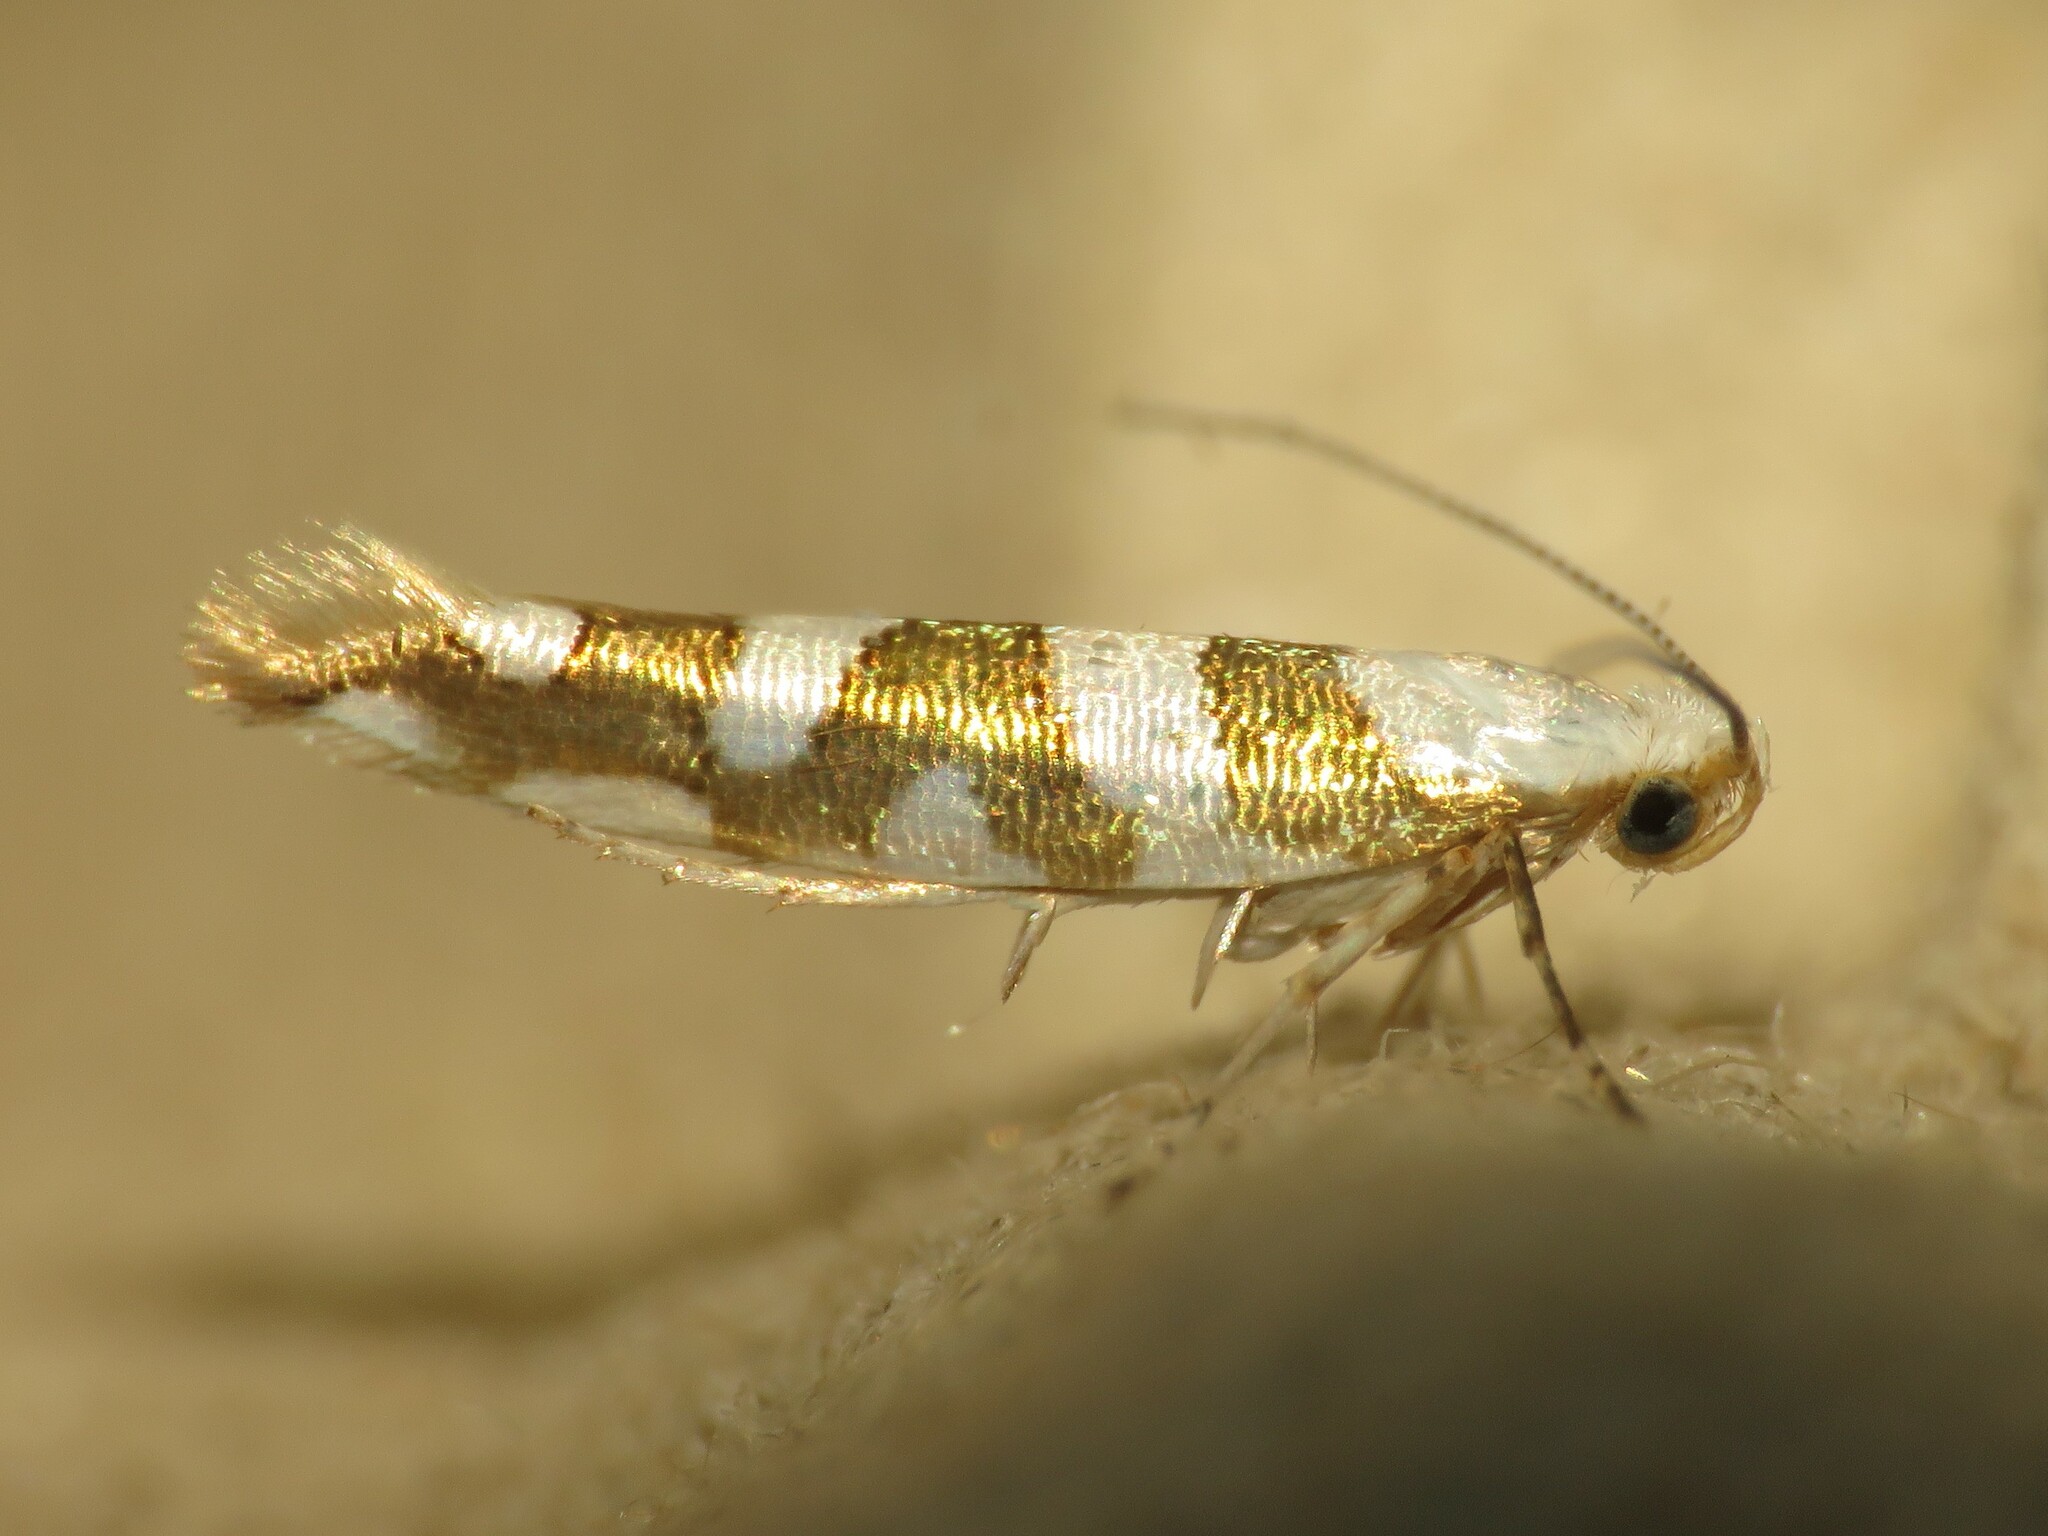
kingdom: Animalia
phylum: Arthropoda
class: Insecta
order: Lepidoptera
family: Argyresthiidae
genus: Argyresthia
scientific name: Argyresthia calliphanes
